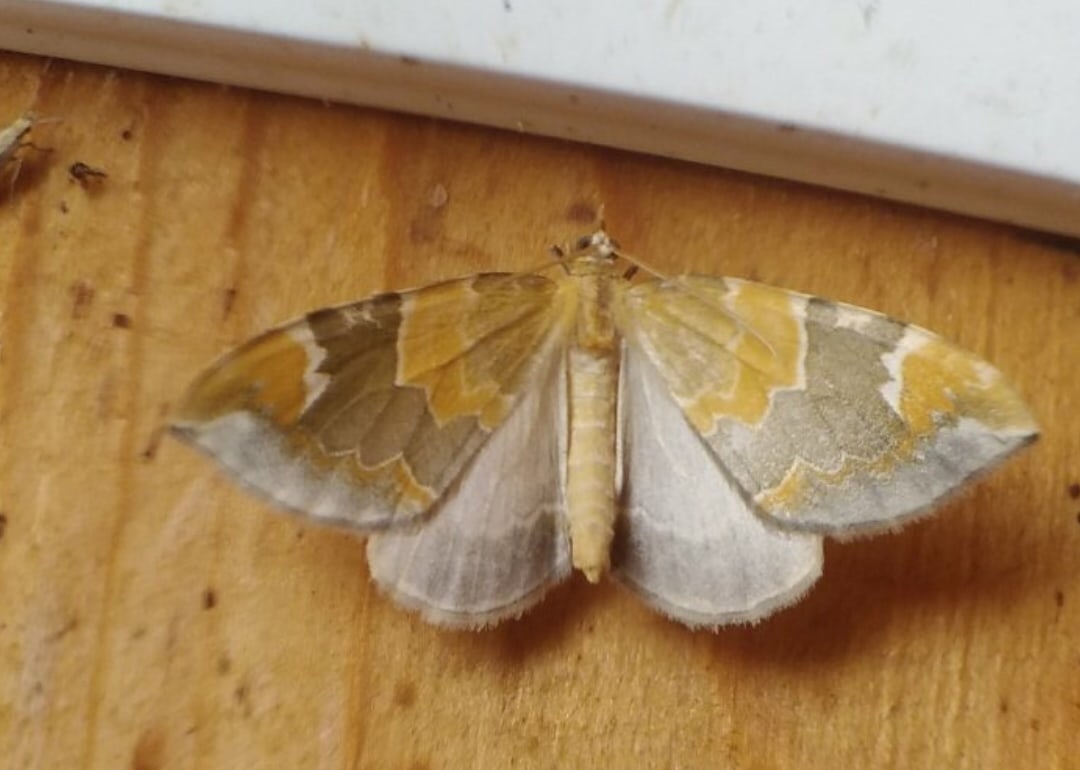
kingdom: Animalia
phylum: Arthropoda
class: Insecta
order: Lepidoptera
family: Geometridae
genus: Eulithis
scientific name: Eulithis pyropata
